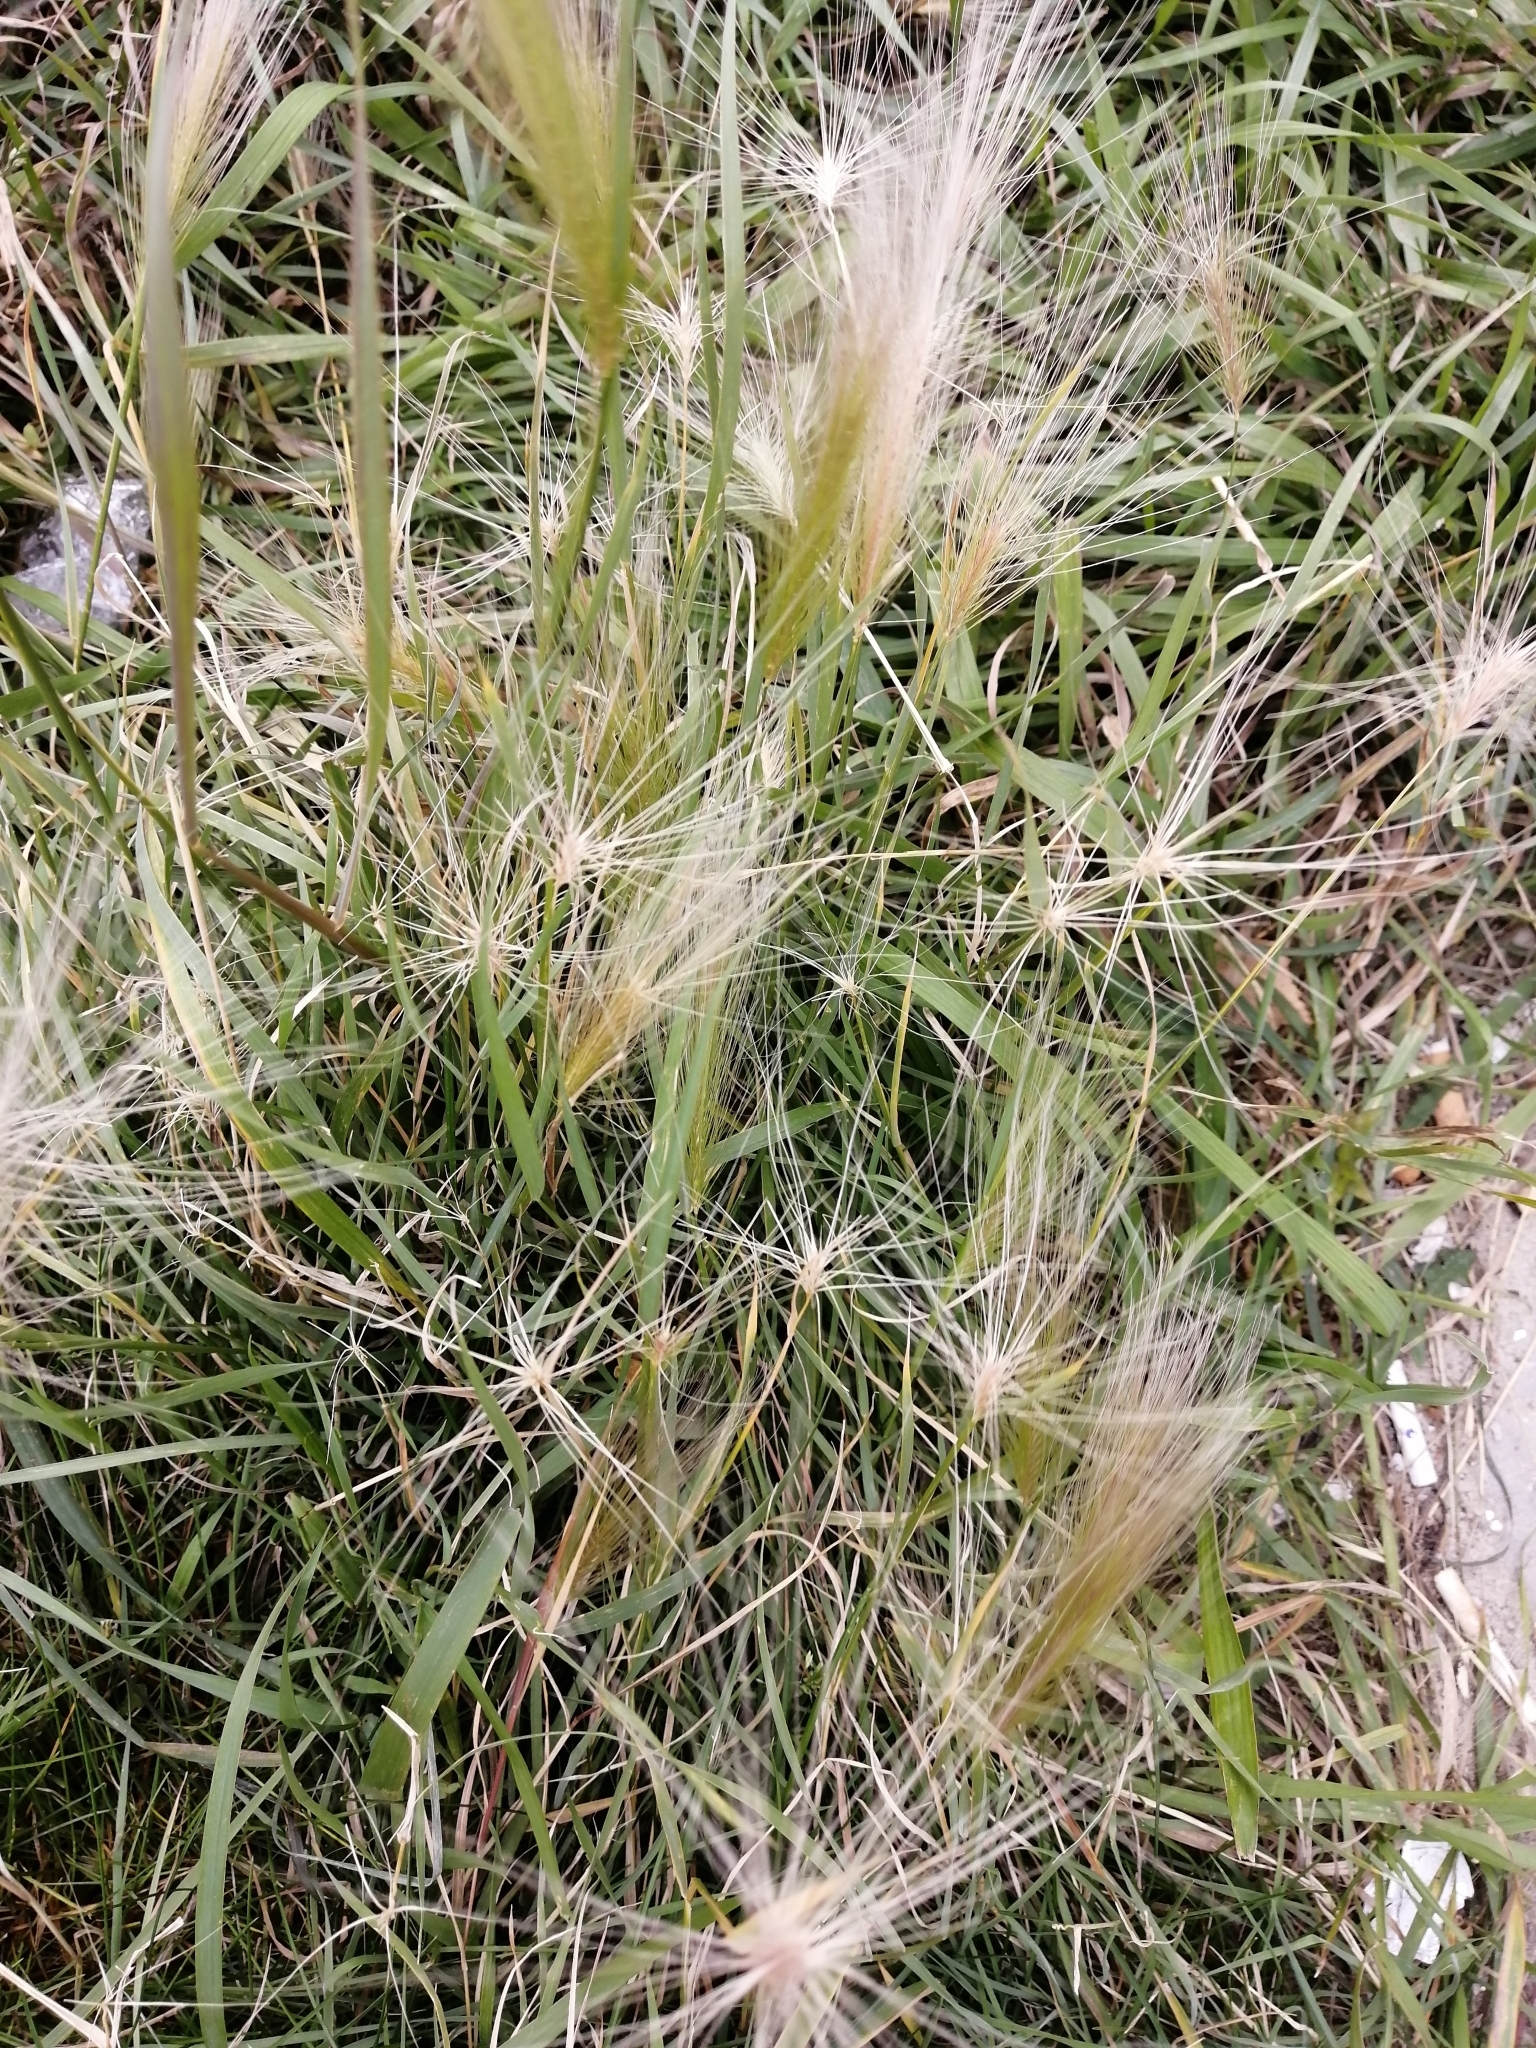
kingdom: Plantae
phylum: Tracheophyta
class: Liliopsida
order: Poales
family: Poaceae
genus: Hordeum
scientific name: Hordeum jubatum
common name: Foxtail barley
